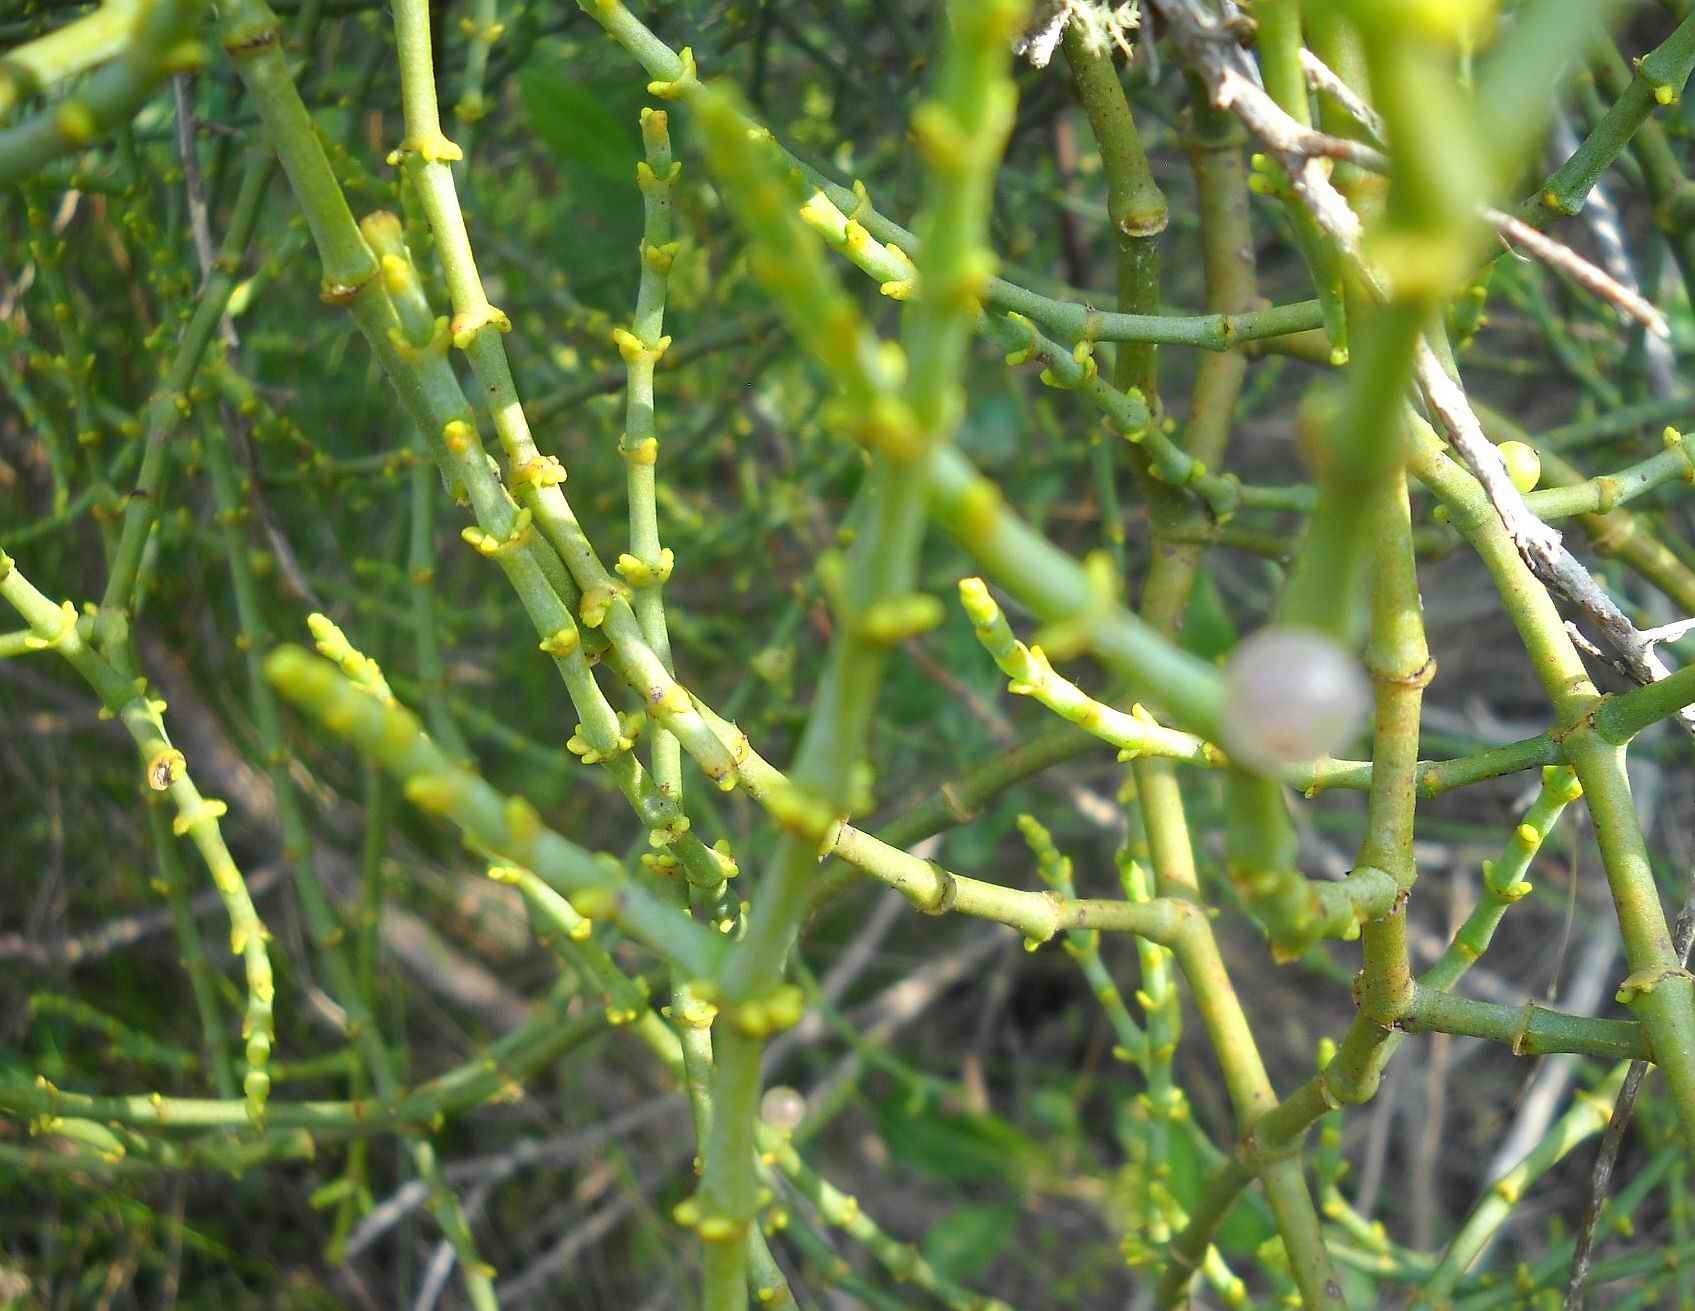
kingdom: Plantae
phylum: Tracheophyta
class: Magnoliopsida
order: Santalales
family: Viscaceae
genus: Viscum
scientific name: Viscum capense
